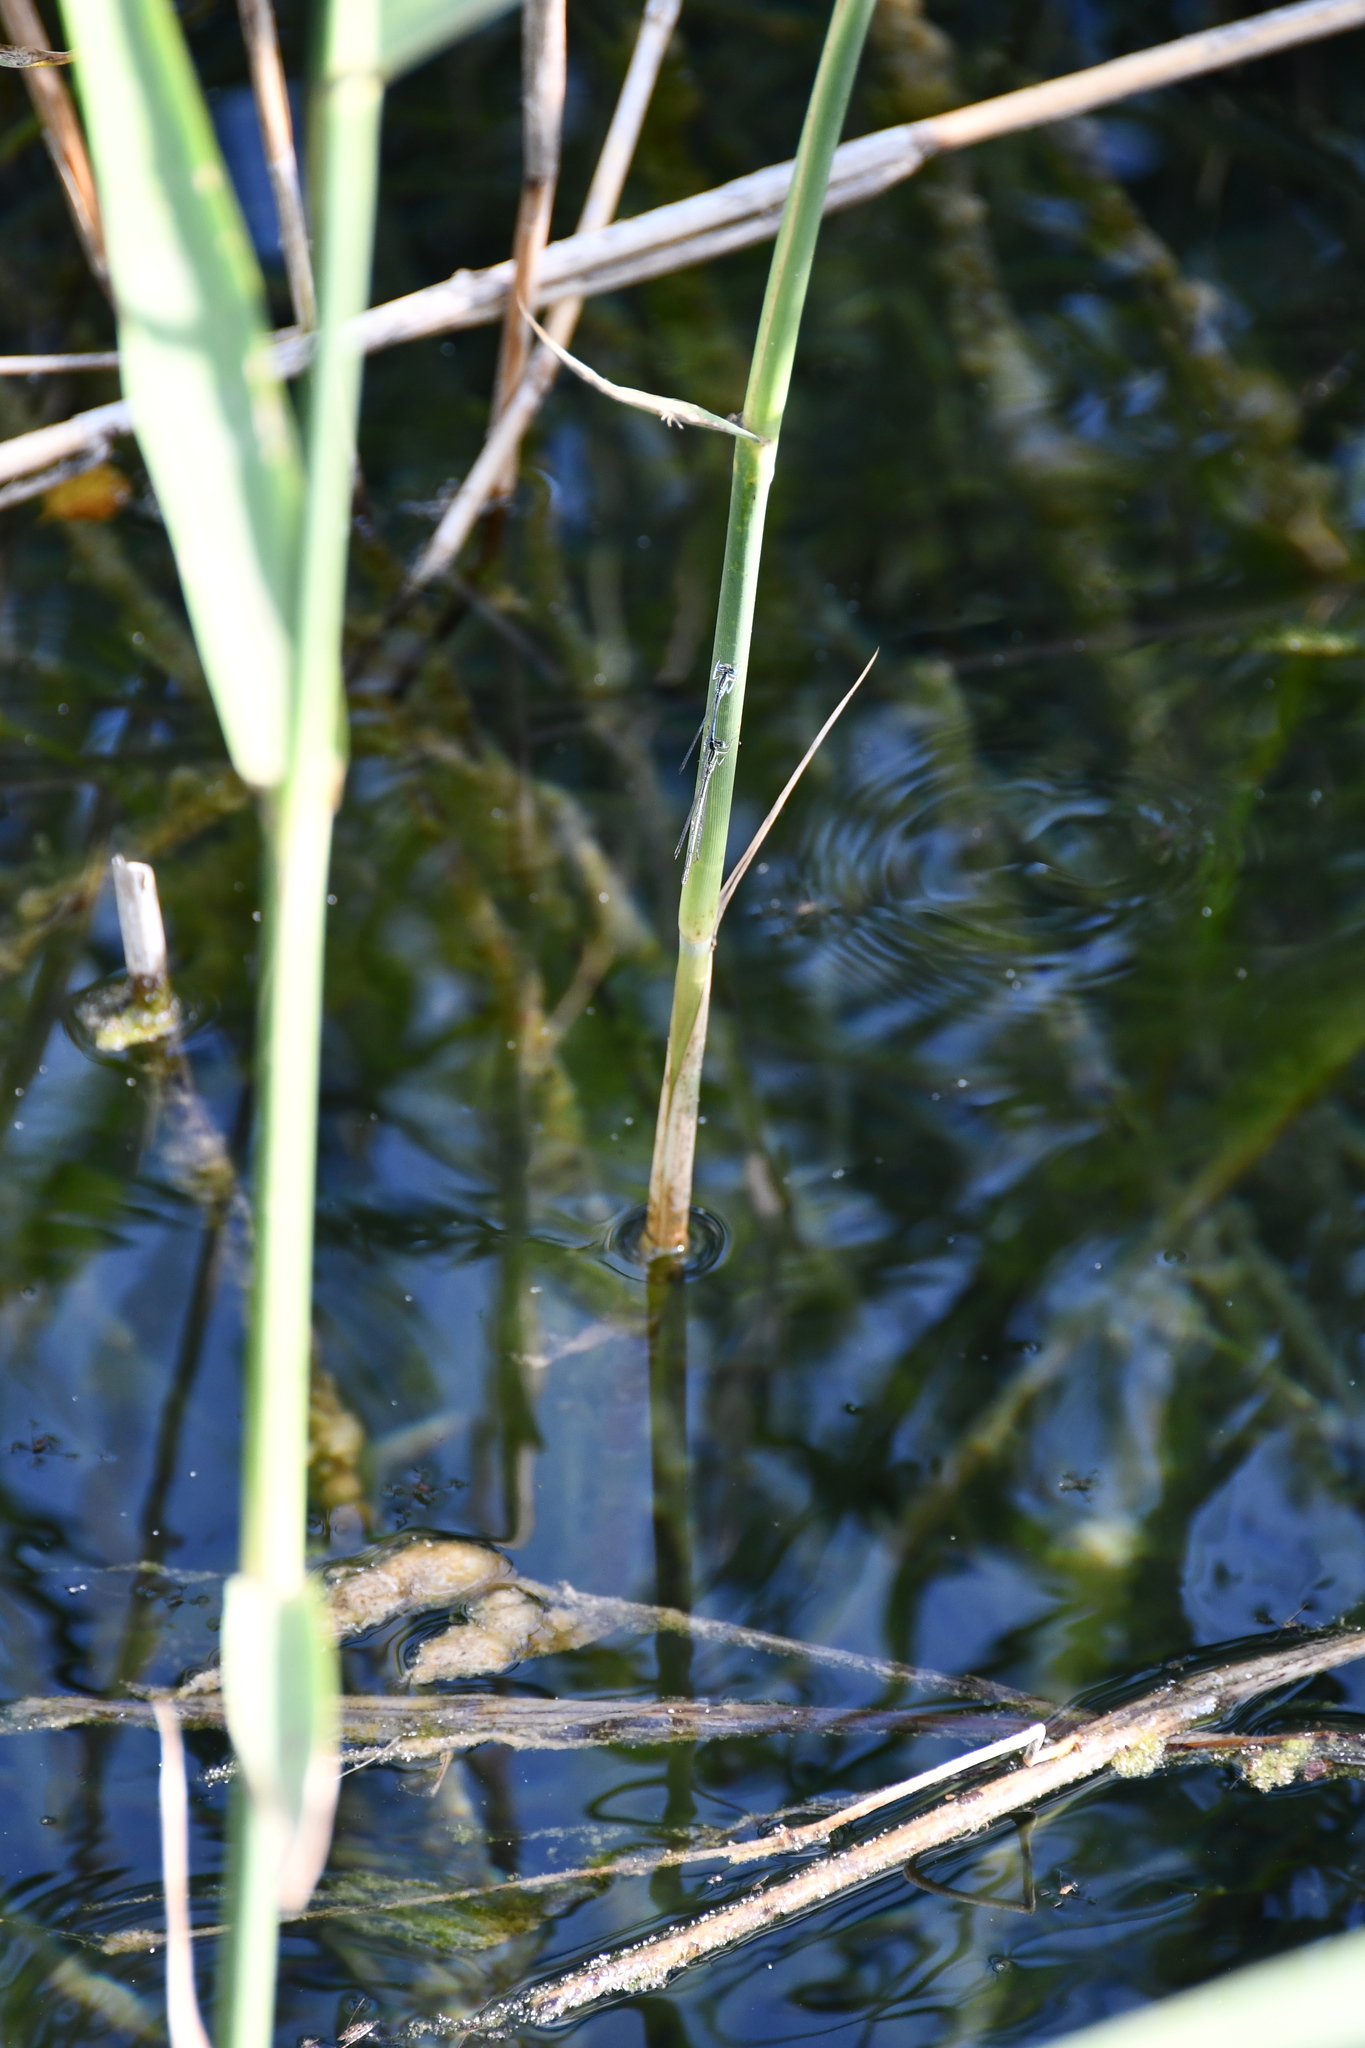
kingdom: Animalia
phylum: Arthropoda
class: Insecta
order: Odonata
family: Platycnemididae
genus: Platycnemis
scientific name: Platycnemis pennipes
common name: White-legged damselfly
